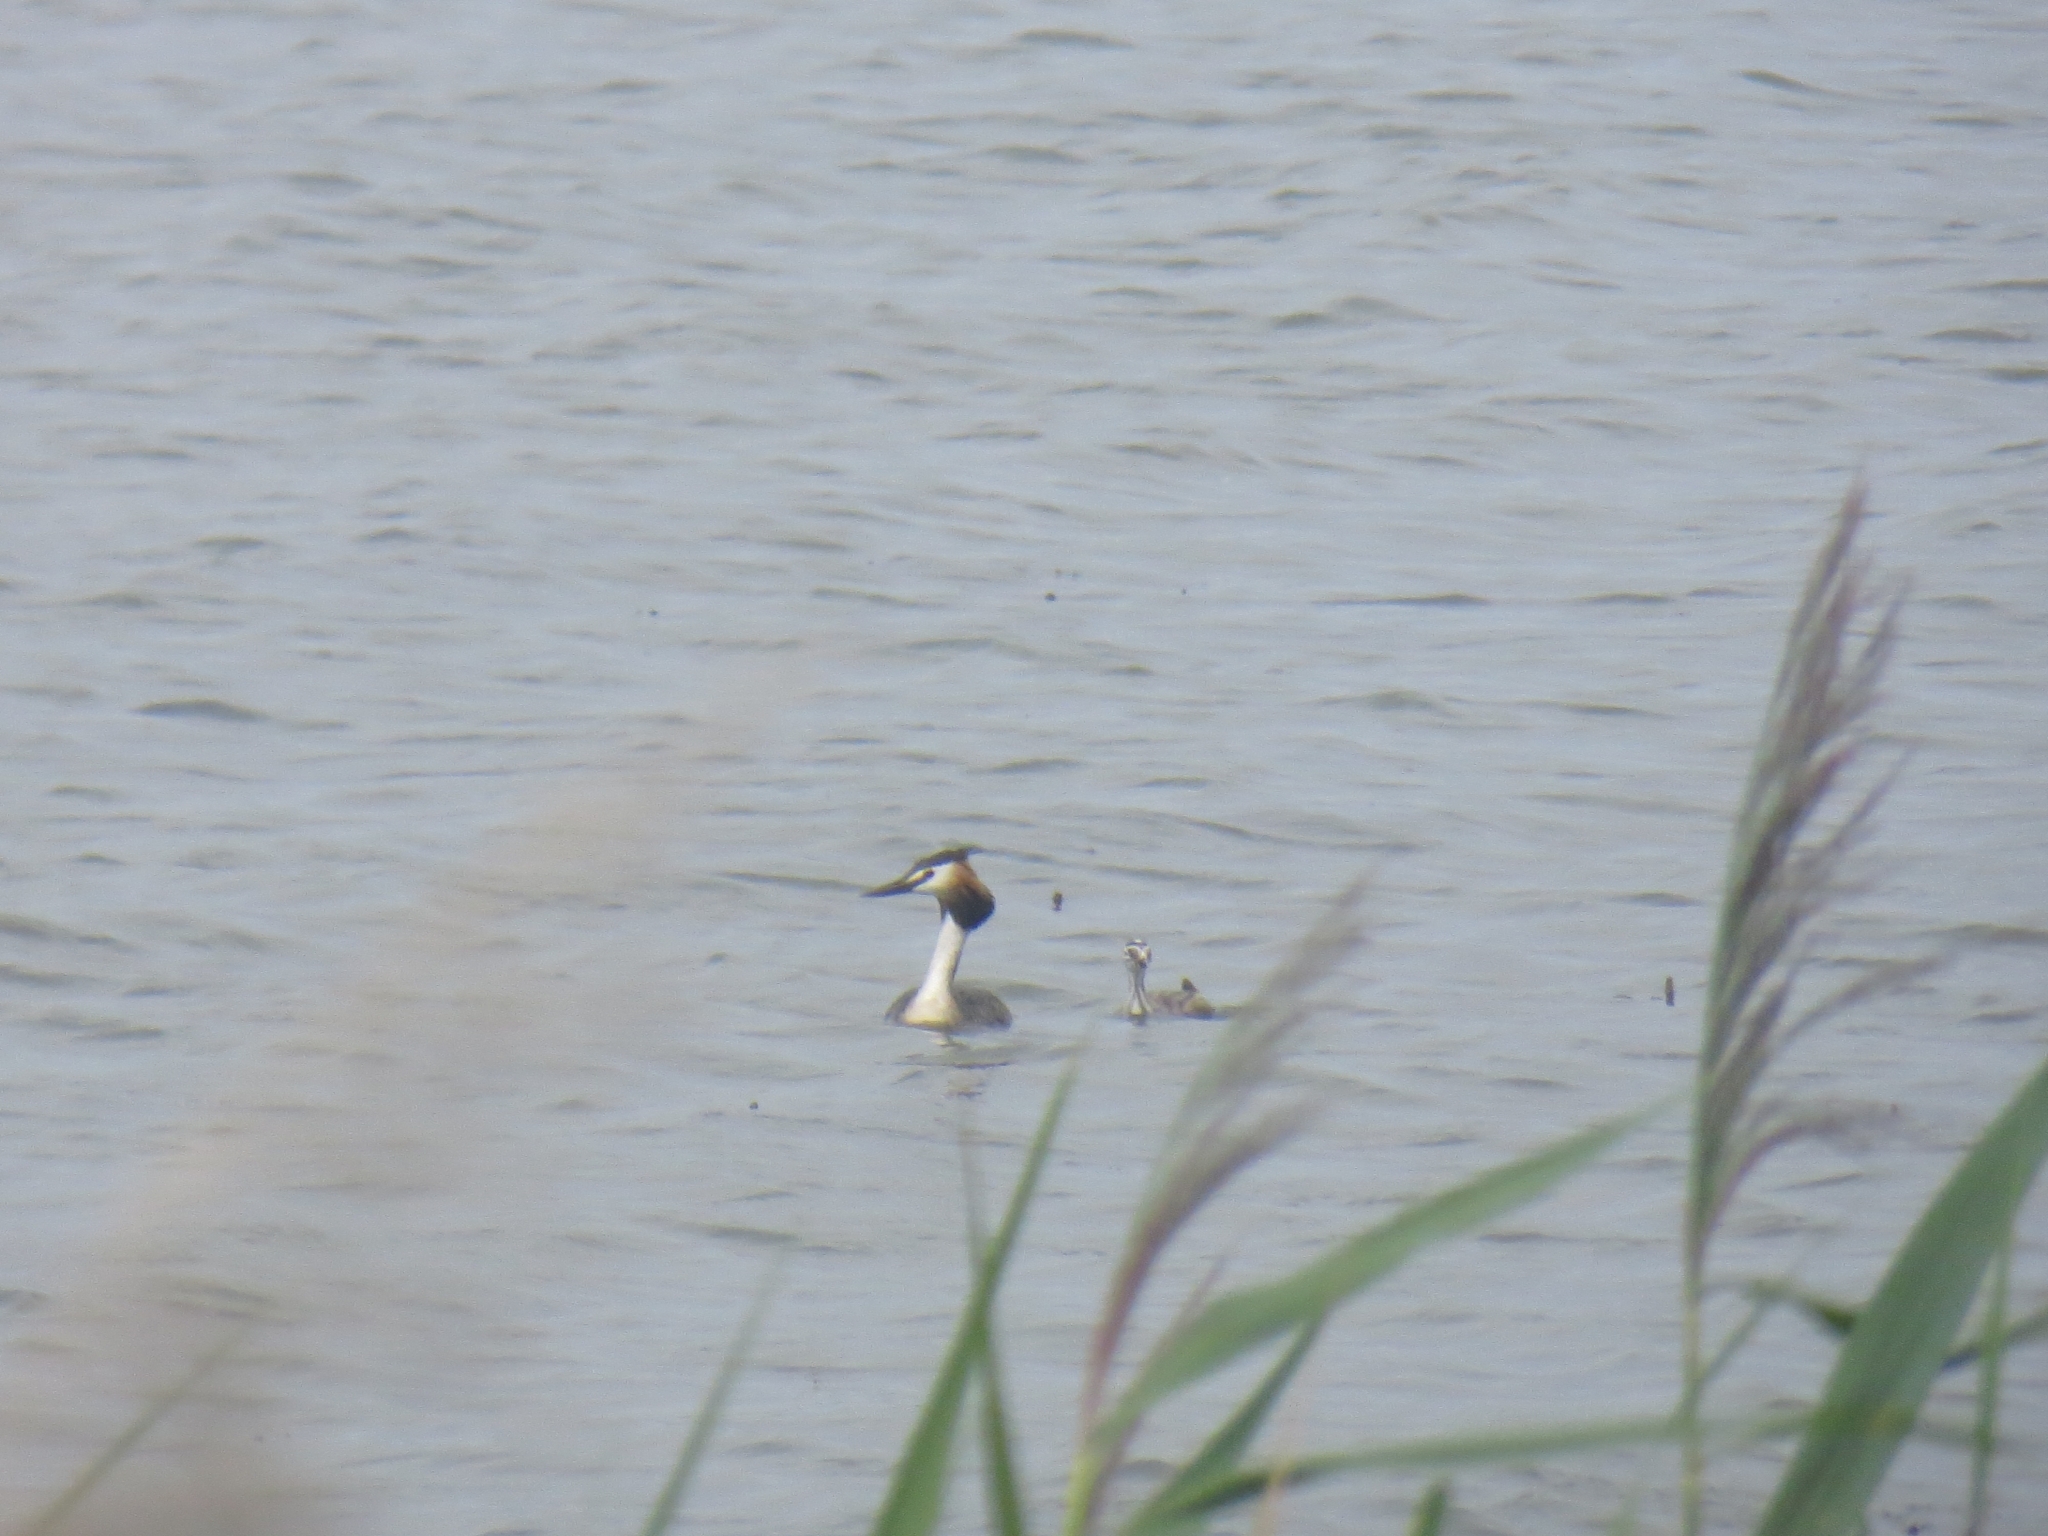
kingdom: Animalia
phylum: Chordata
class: Aves
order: Podicipediformes
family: Podicipedidae
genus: Podiceps
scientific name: Podiceps cristatus
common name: Great crested grebe
